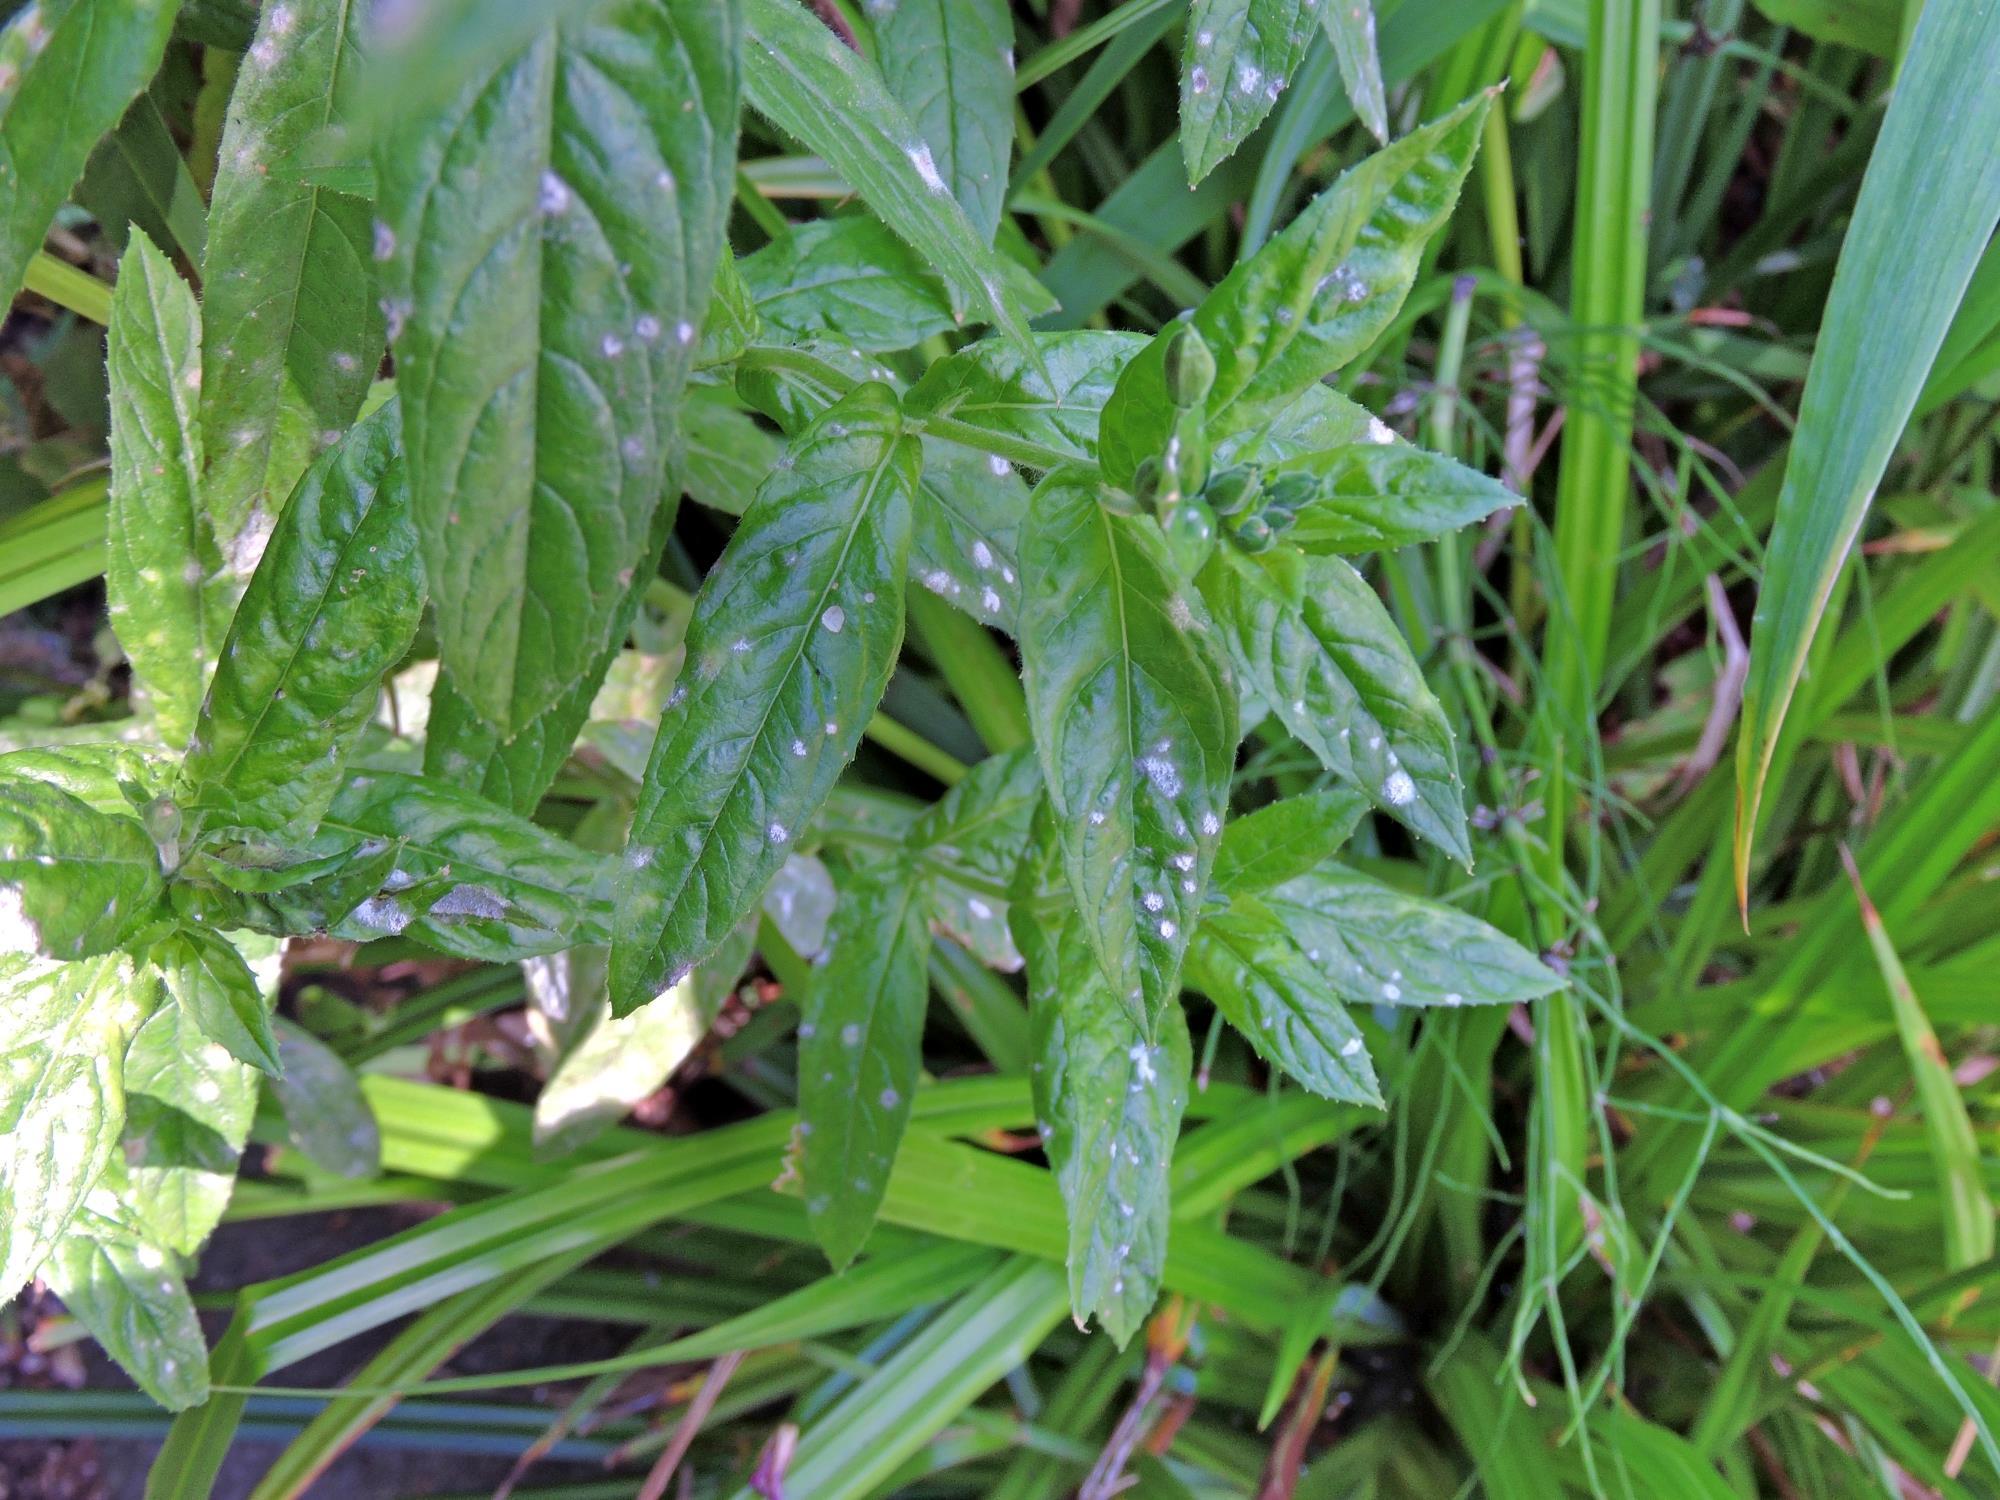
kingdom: Fungi
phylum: Ascomycota
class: Leotiomycetes
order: Helotiales
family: Erysiphaceae
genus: Podosphaera
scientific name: Podosphaera epilobii
